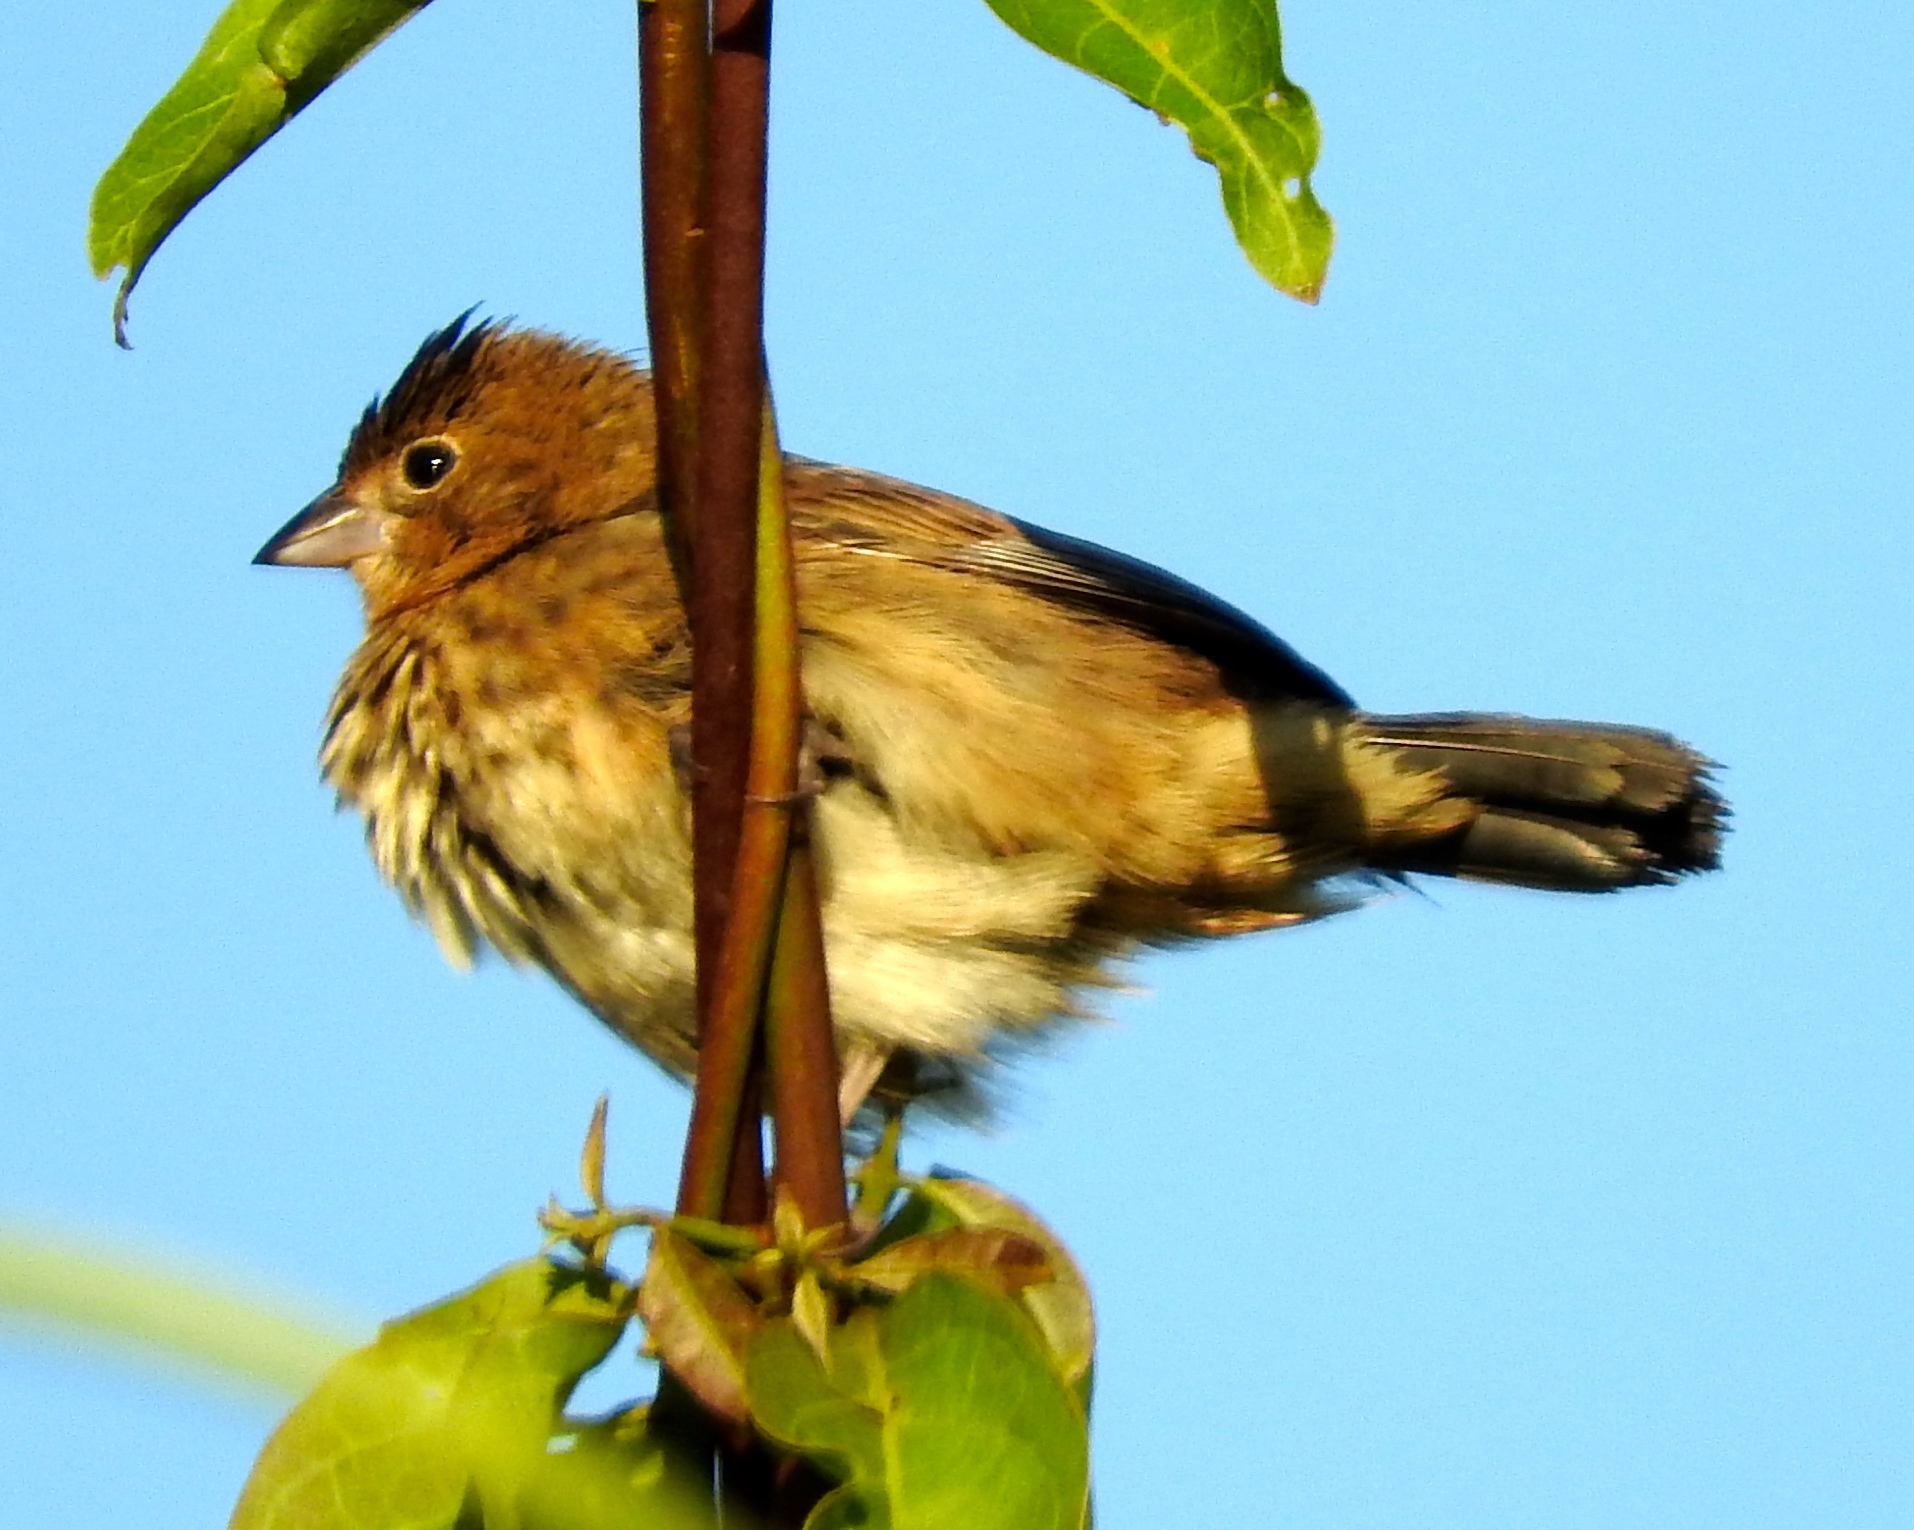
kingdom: Animalia
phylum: Chordata
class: Aves
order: Passeriformes
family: Thraupidae
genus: Volatinia
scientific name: Volatinia jacarina
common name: Blue-black grassquit
